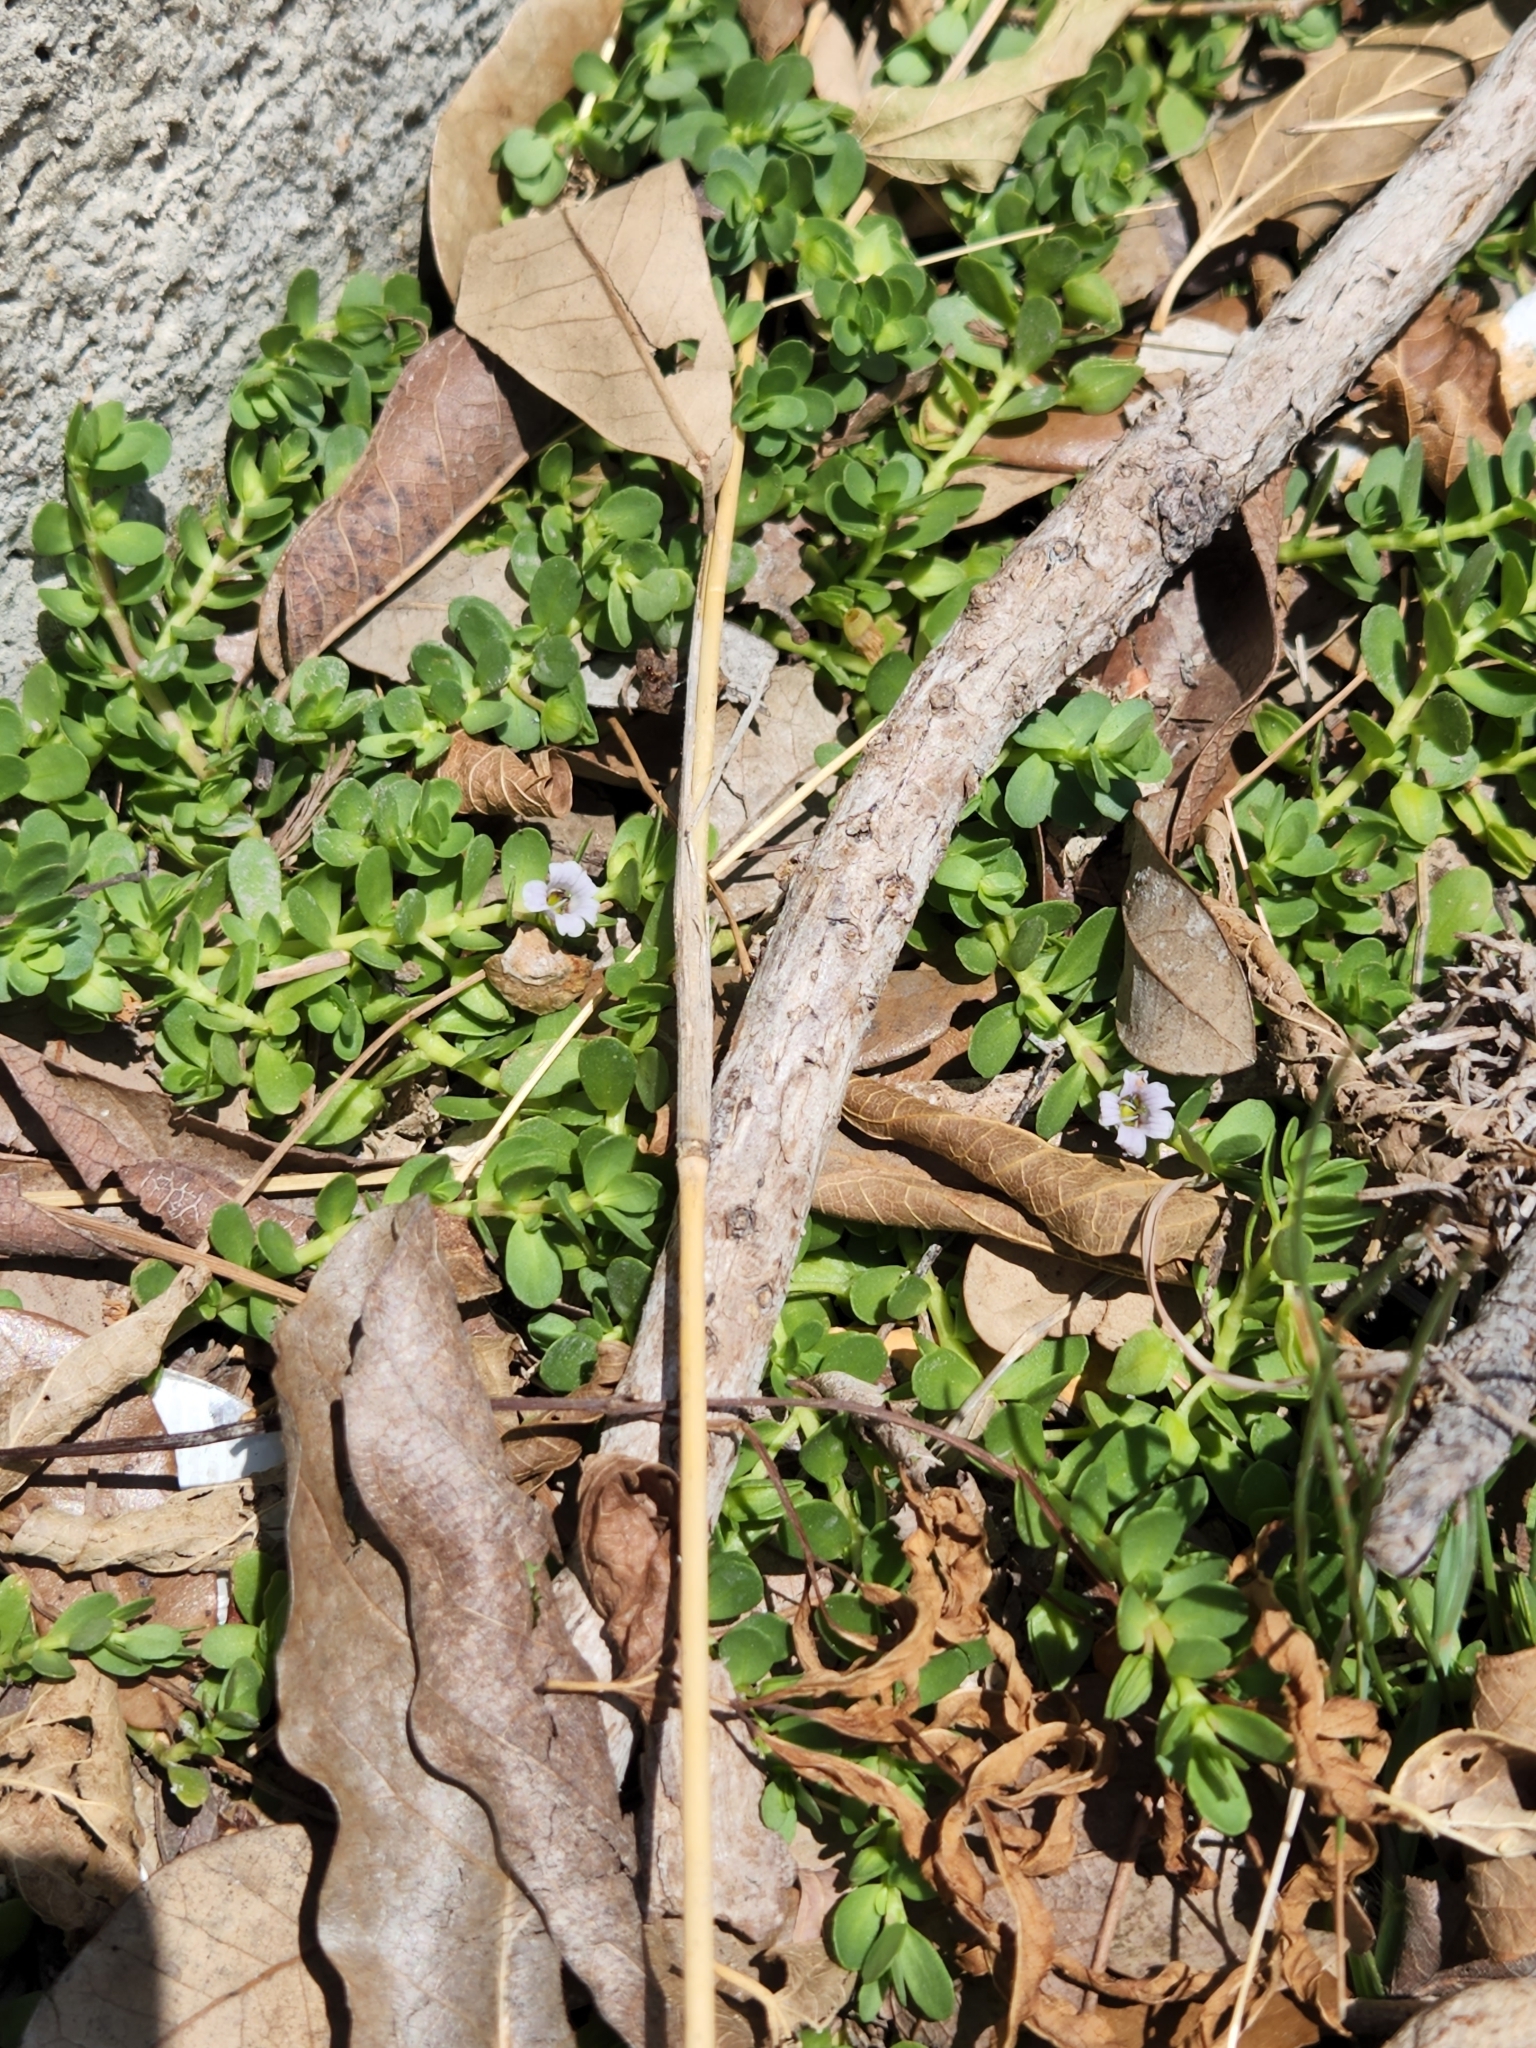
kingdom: Plantae
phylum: Tracheophyta
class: Magnoliopsida
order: Lamiales
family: Plantaginaceae
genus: Bacopa
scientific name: Bacopa monnieri
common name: Indian-pennywort
